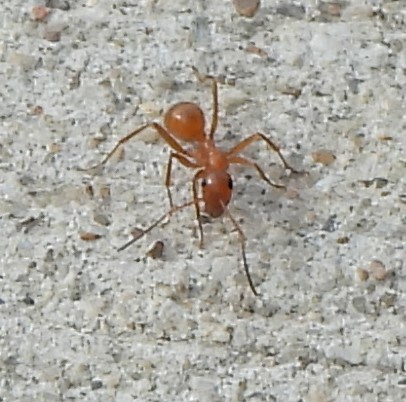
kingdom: Animalia
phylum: Arthropoda
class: Insecta
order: Hymenoptera
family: Formicidae
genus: Formica
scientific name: Formica pallidefulva
